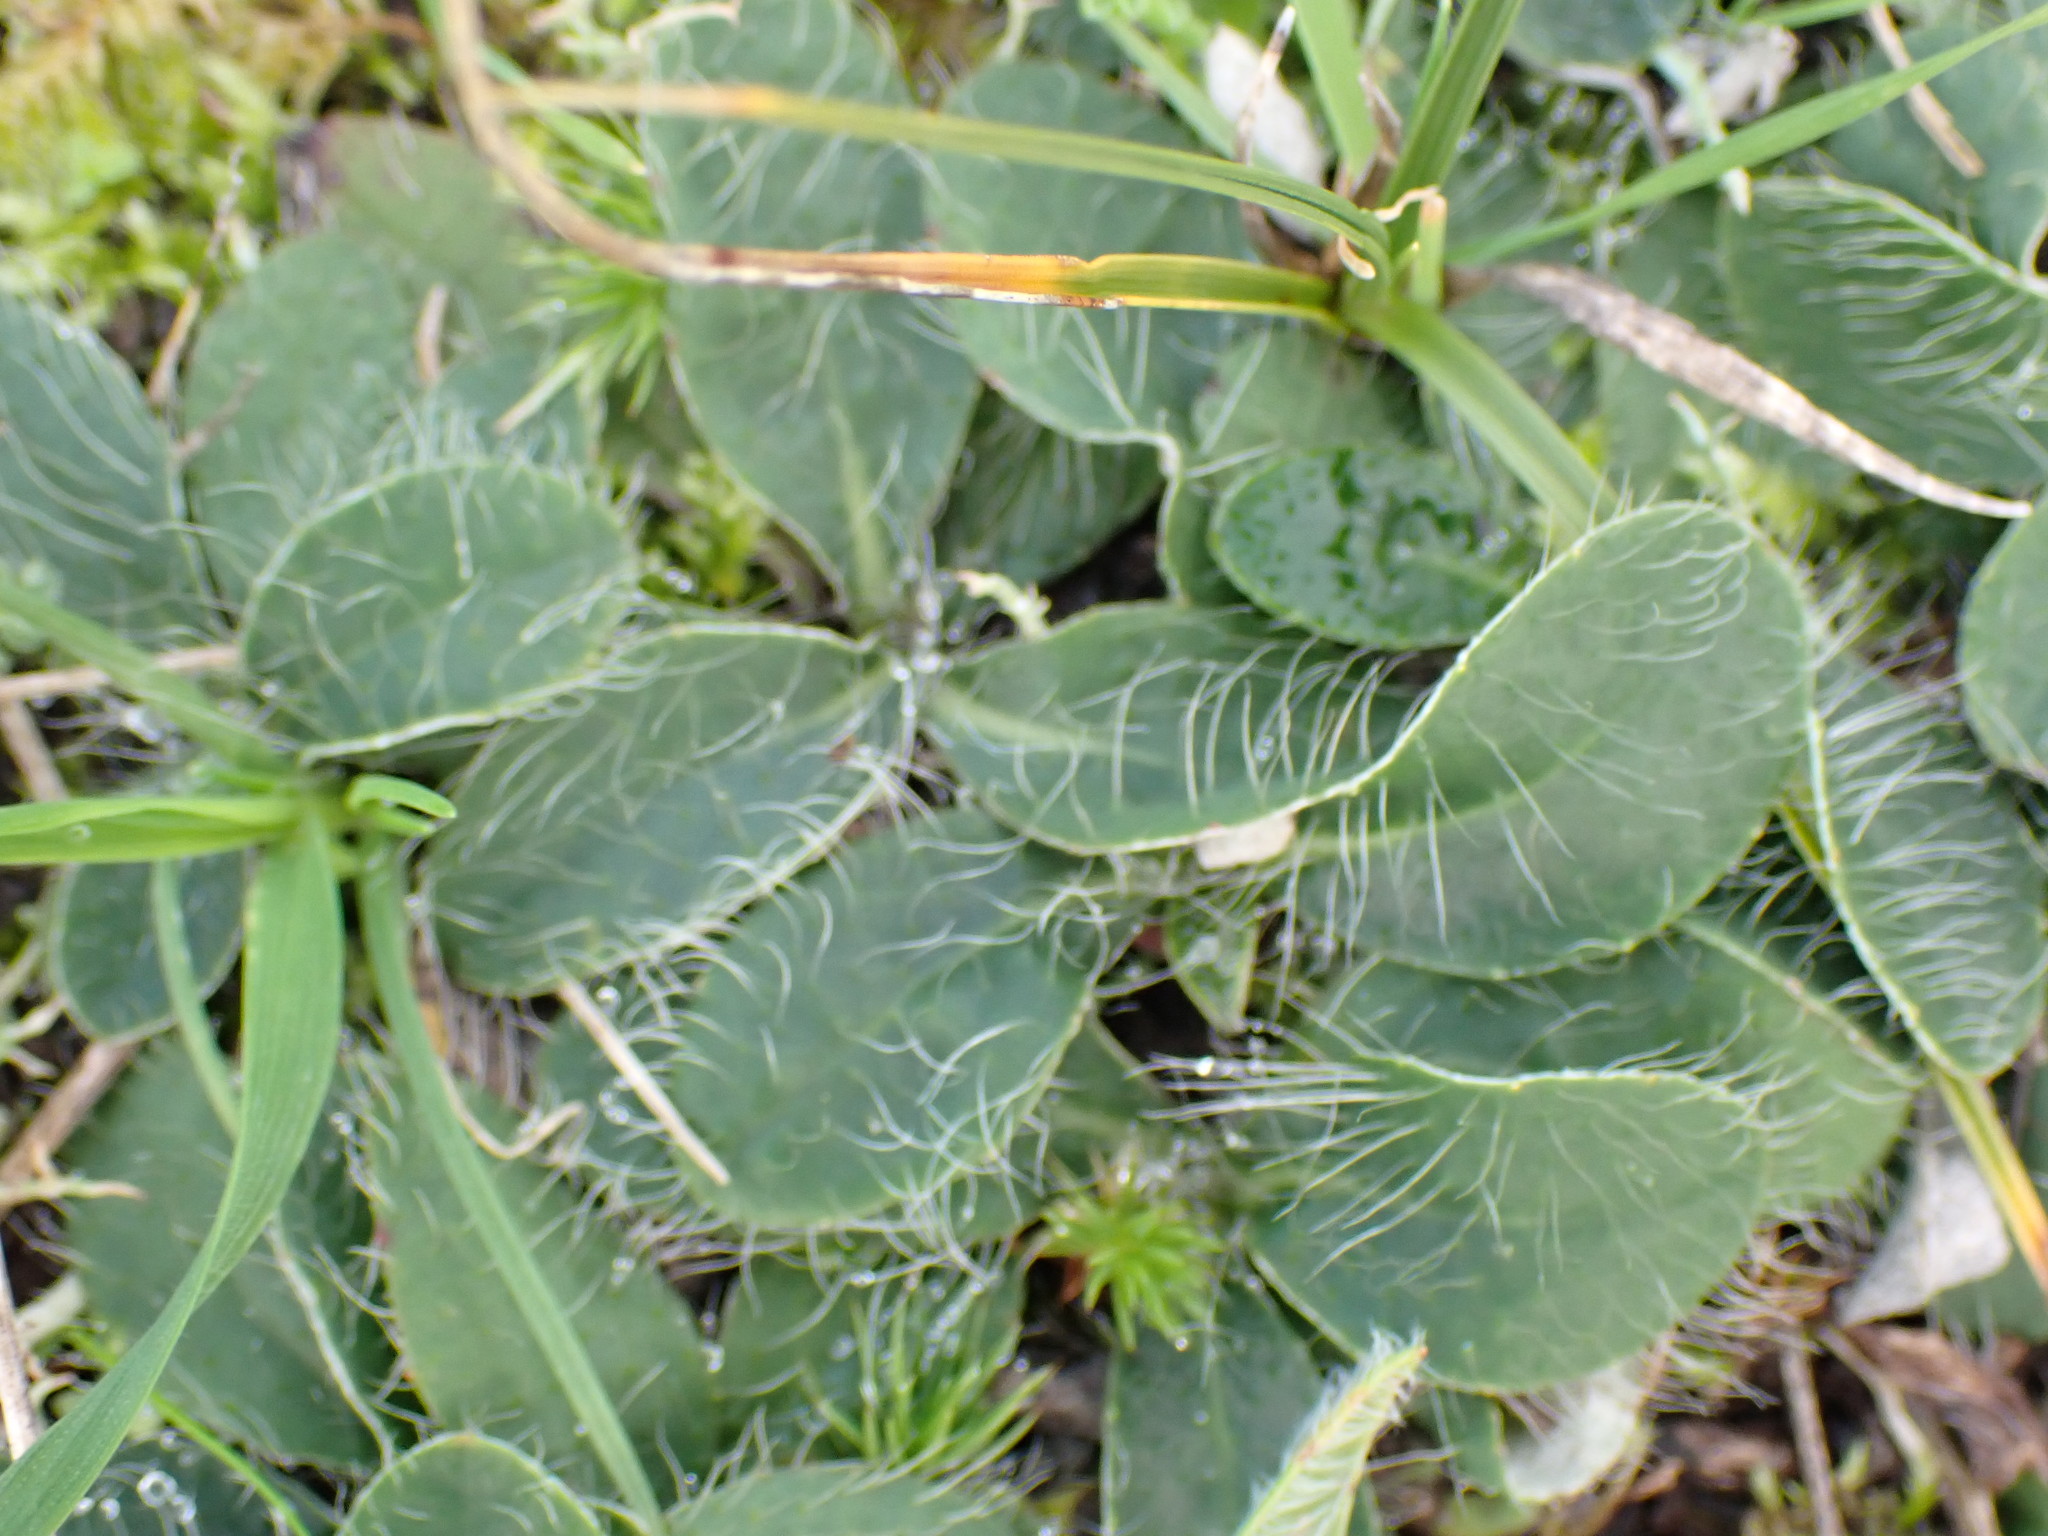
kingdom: Plantae
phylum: Tracheophyta
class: Magnoliopsida
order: Asterales
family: Asteraceae
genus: Pilosella
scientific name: Pilosella officinarum
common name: Mouse-ear hawkweed
